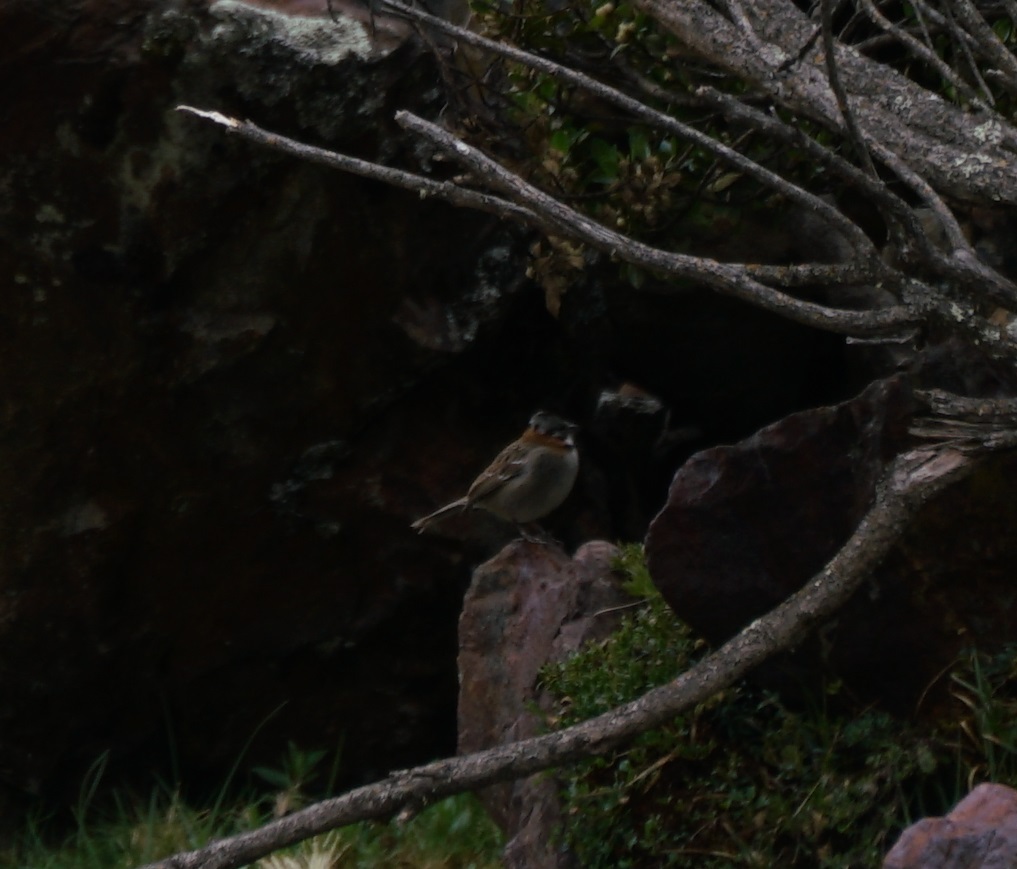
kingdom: Animalia
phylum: Chordata
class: Aves
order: Passeriformes
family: Passerellidae
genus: Zonotrichia
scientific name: Zonotrichia capensis
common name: Rufous-collared sparrow
